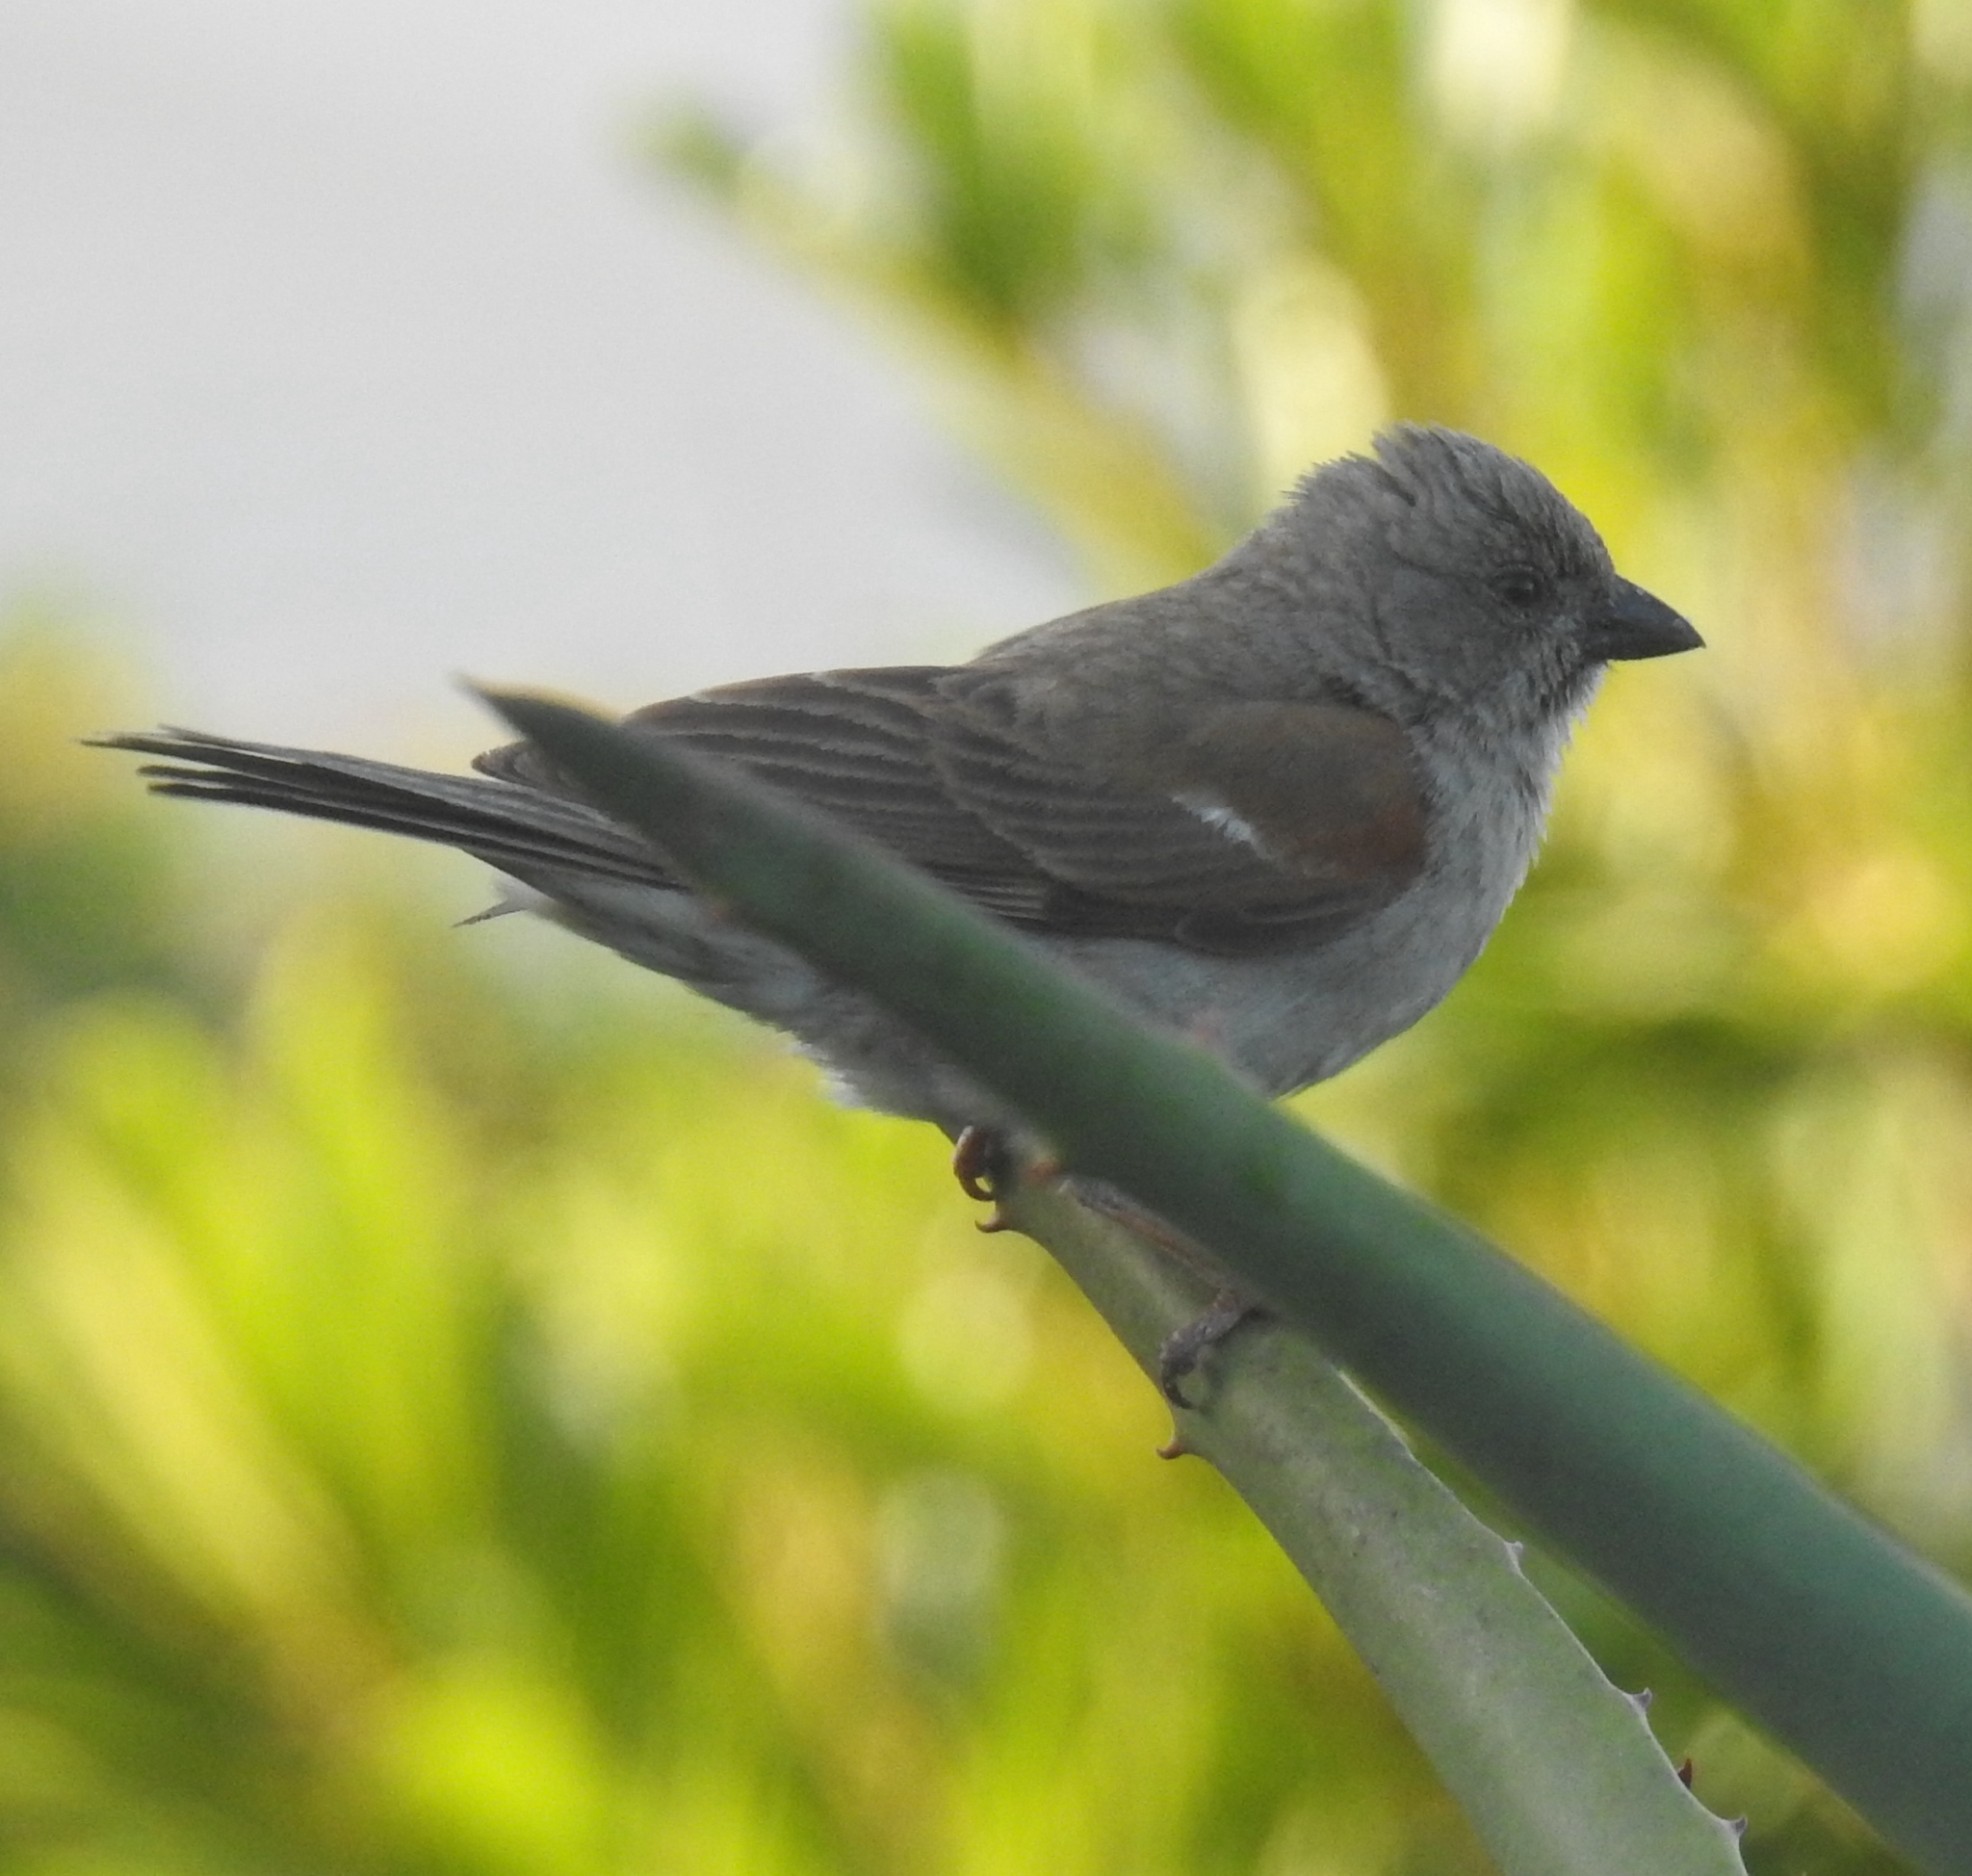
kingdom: Animalia
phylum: Chordata
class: Aves
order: Passeriformes
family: Passeridae
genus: Passer
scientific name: Passer diffusus
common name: Southern grey-headed sparrow
